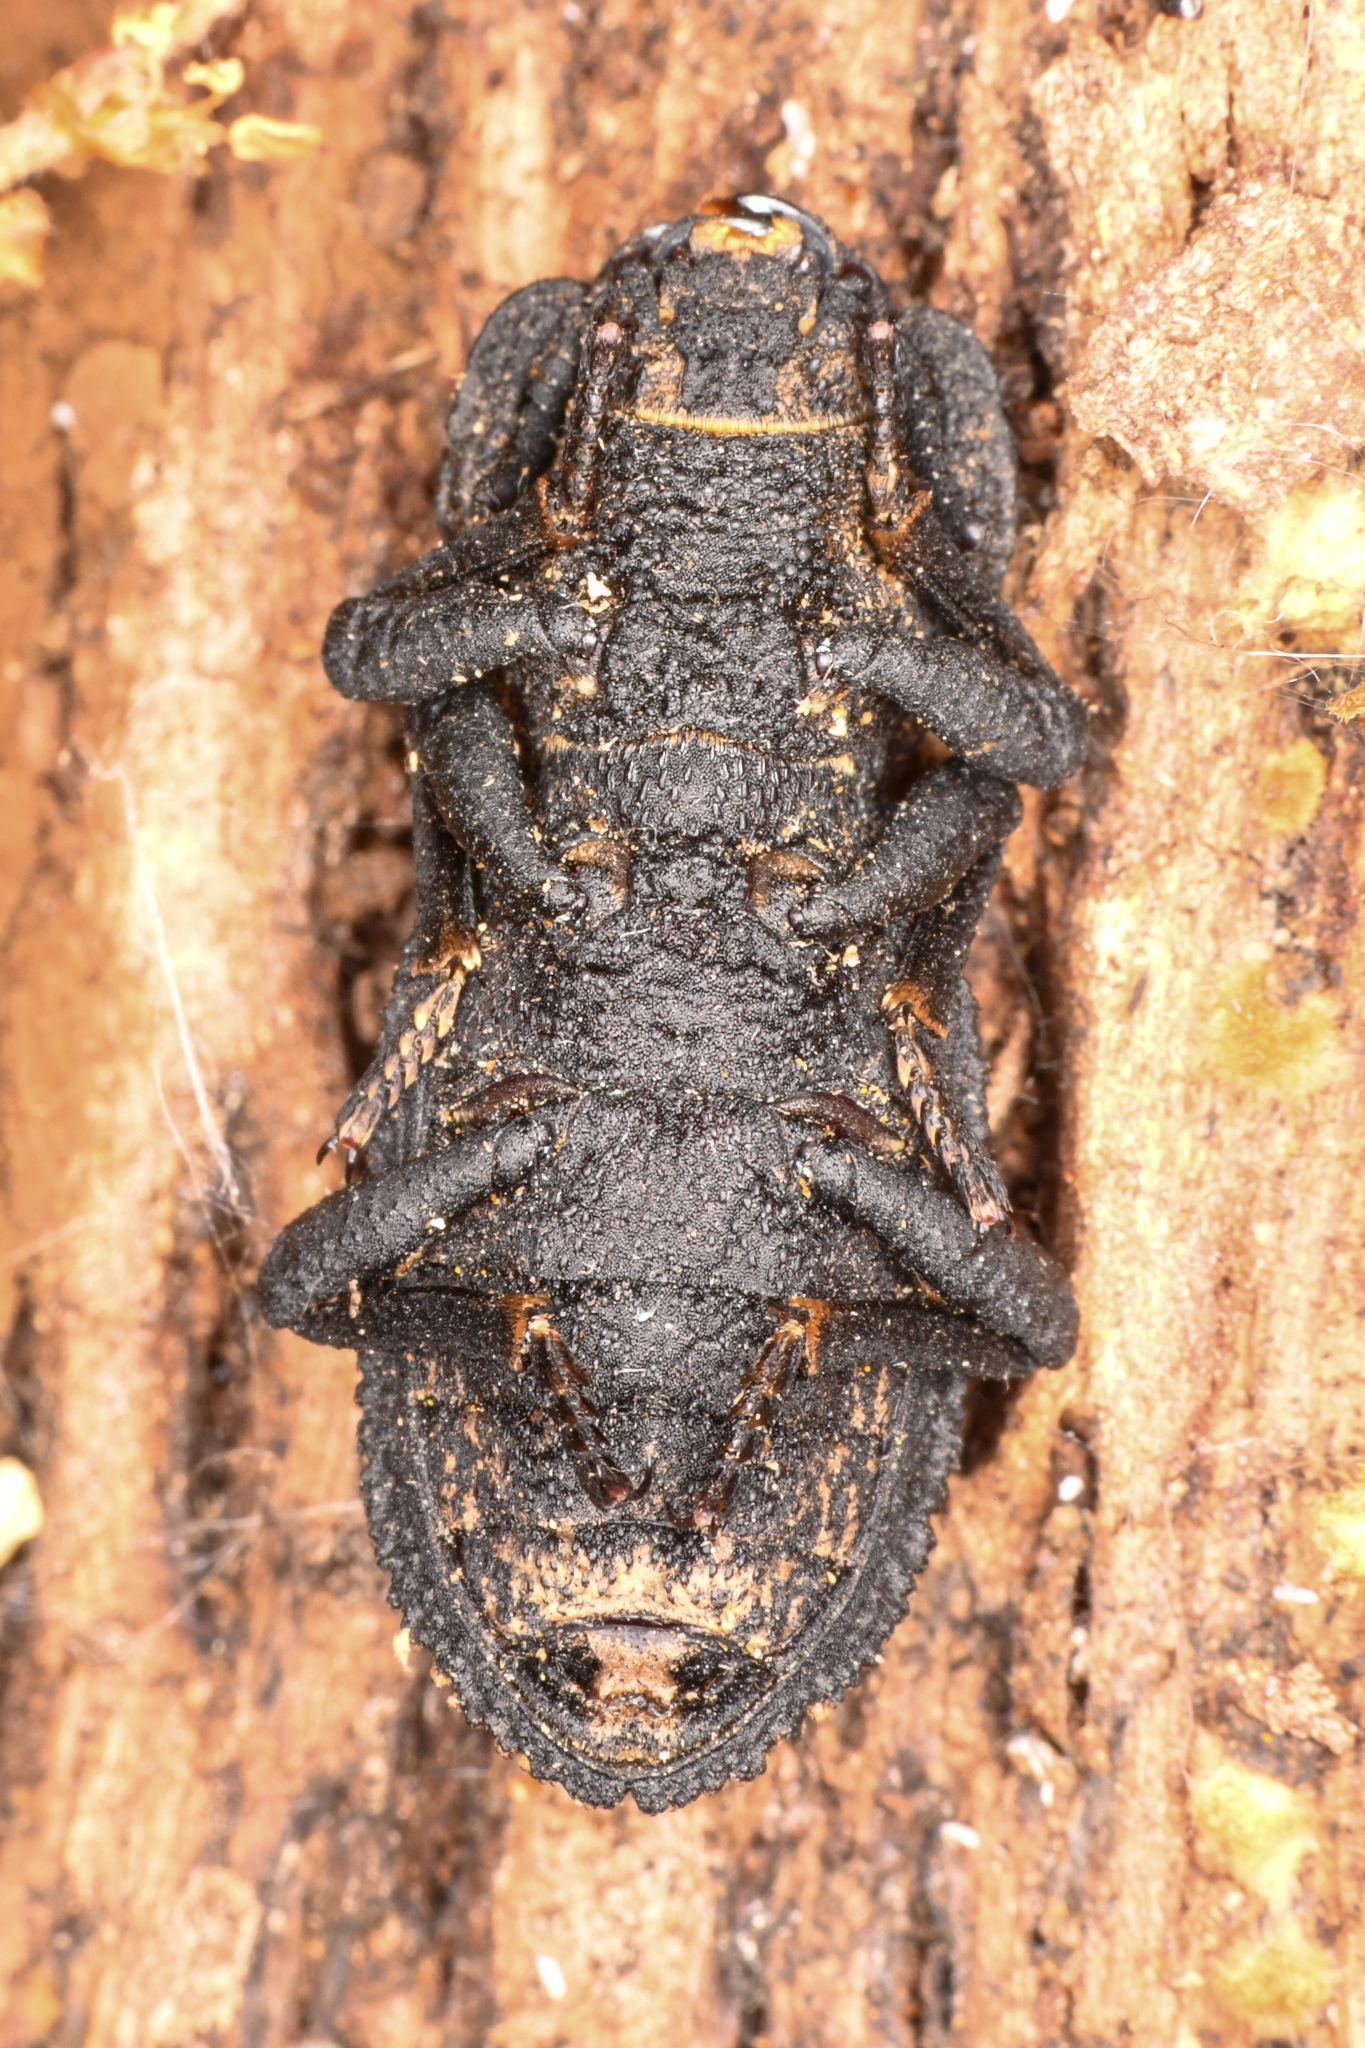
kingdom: Animalia
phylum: Arthropoda
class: Insecta
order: Coleoptera
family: Zopheridae
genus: Phloeodes
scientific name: Phloeodes diabolicus
